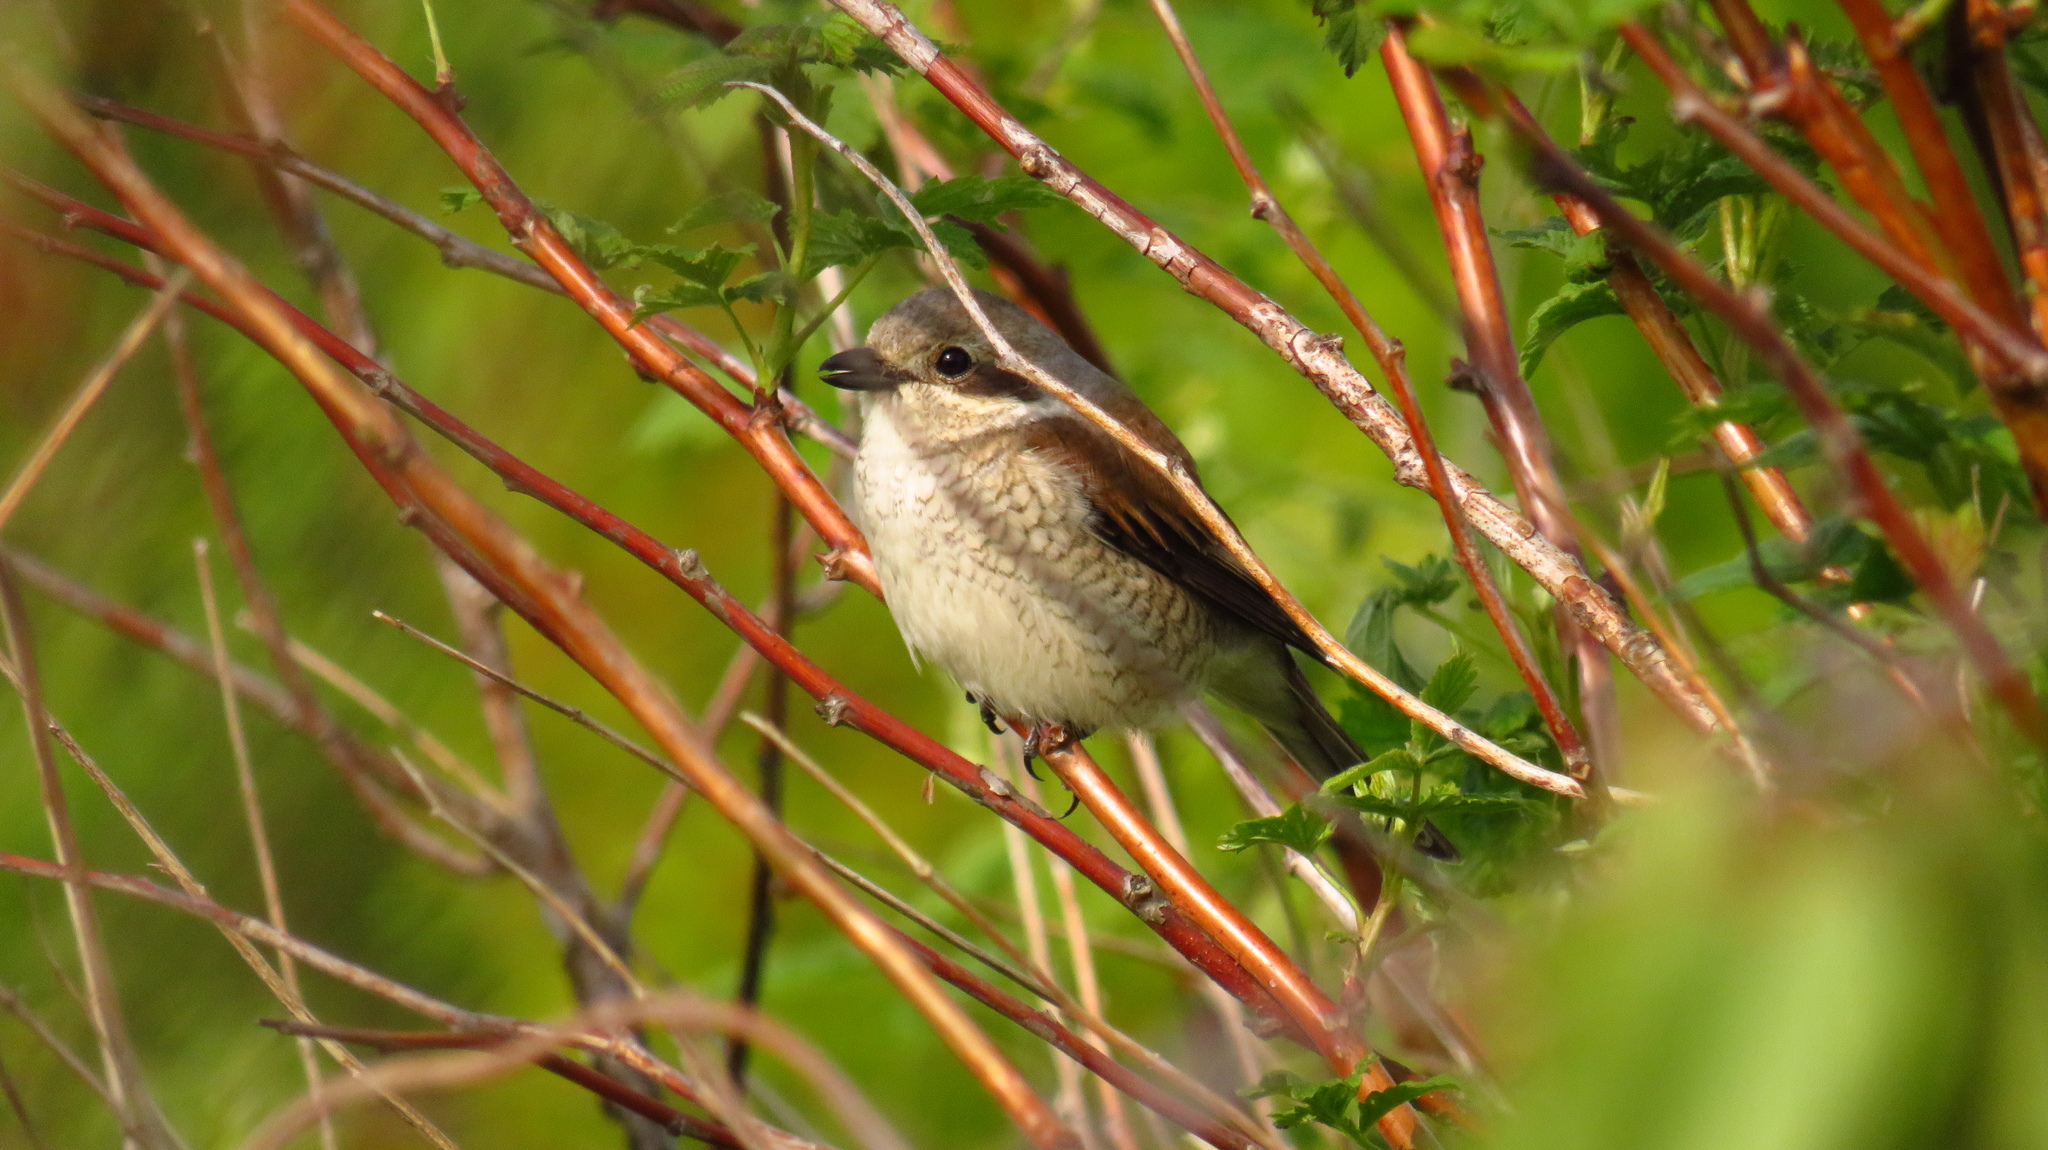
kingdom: Animalia
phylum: Chordata
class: Aves
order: Passeriformes
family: Laniidae
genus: Lanius
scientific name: Lanius collurio
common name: Red-backed shrike
